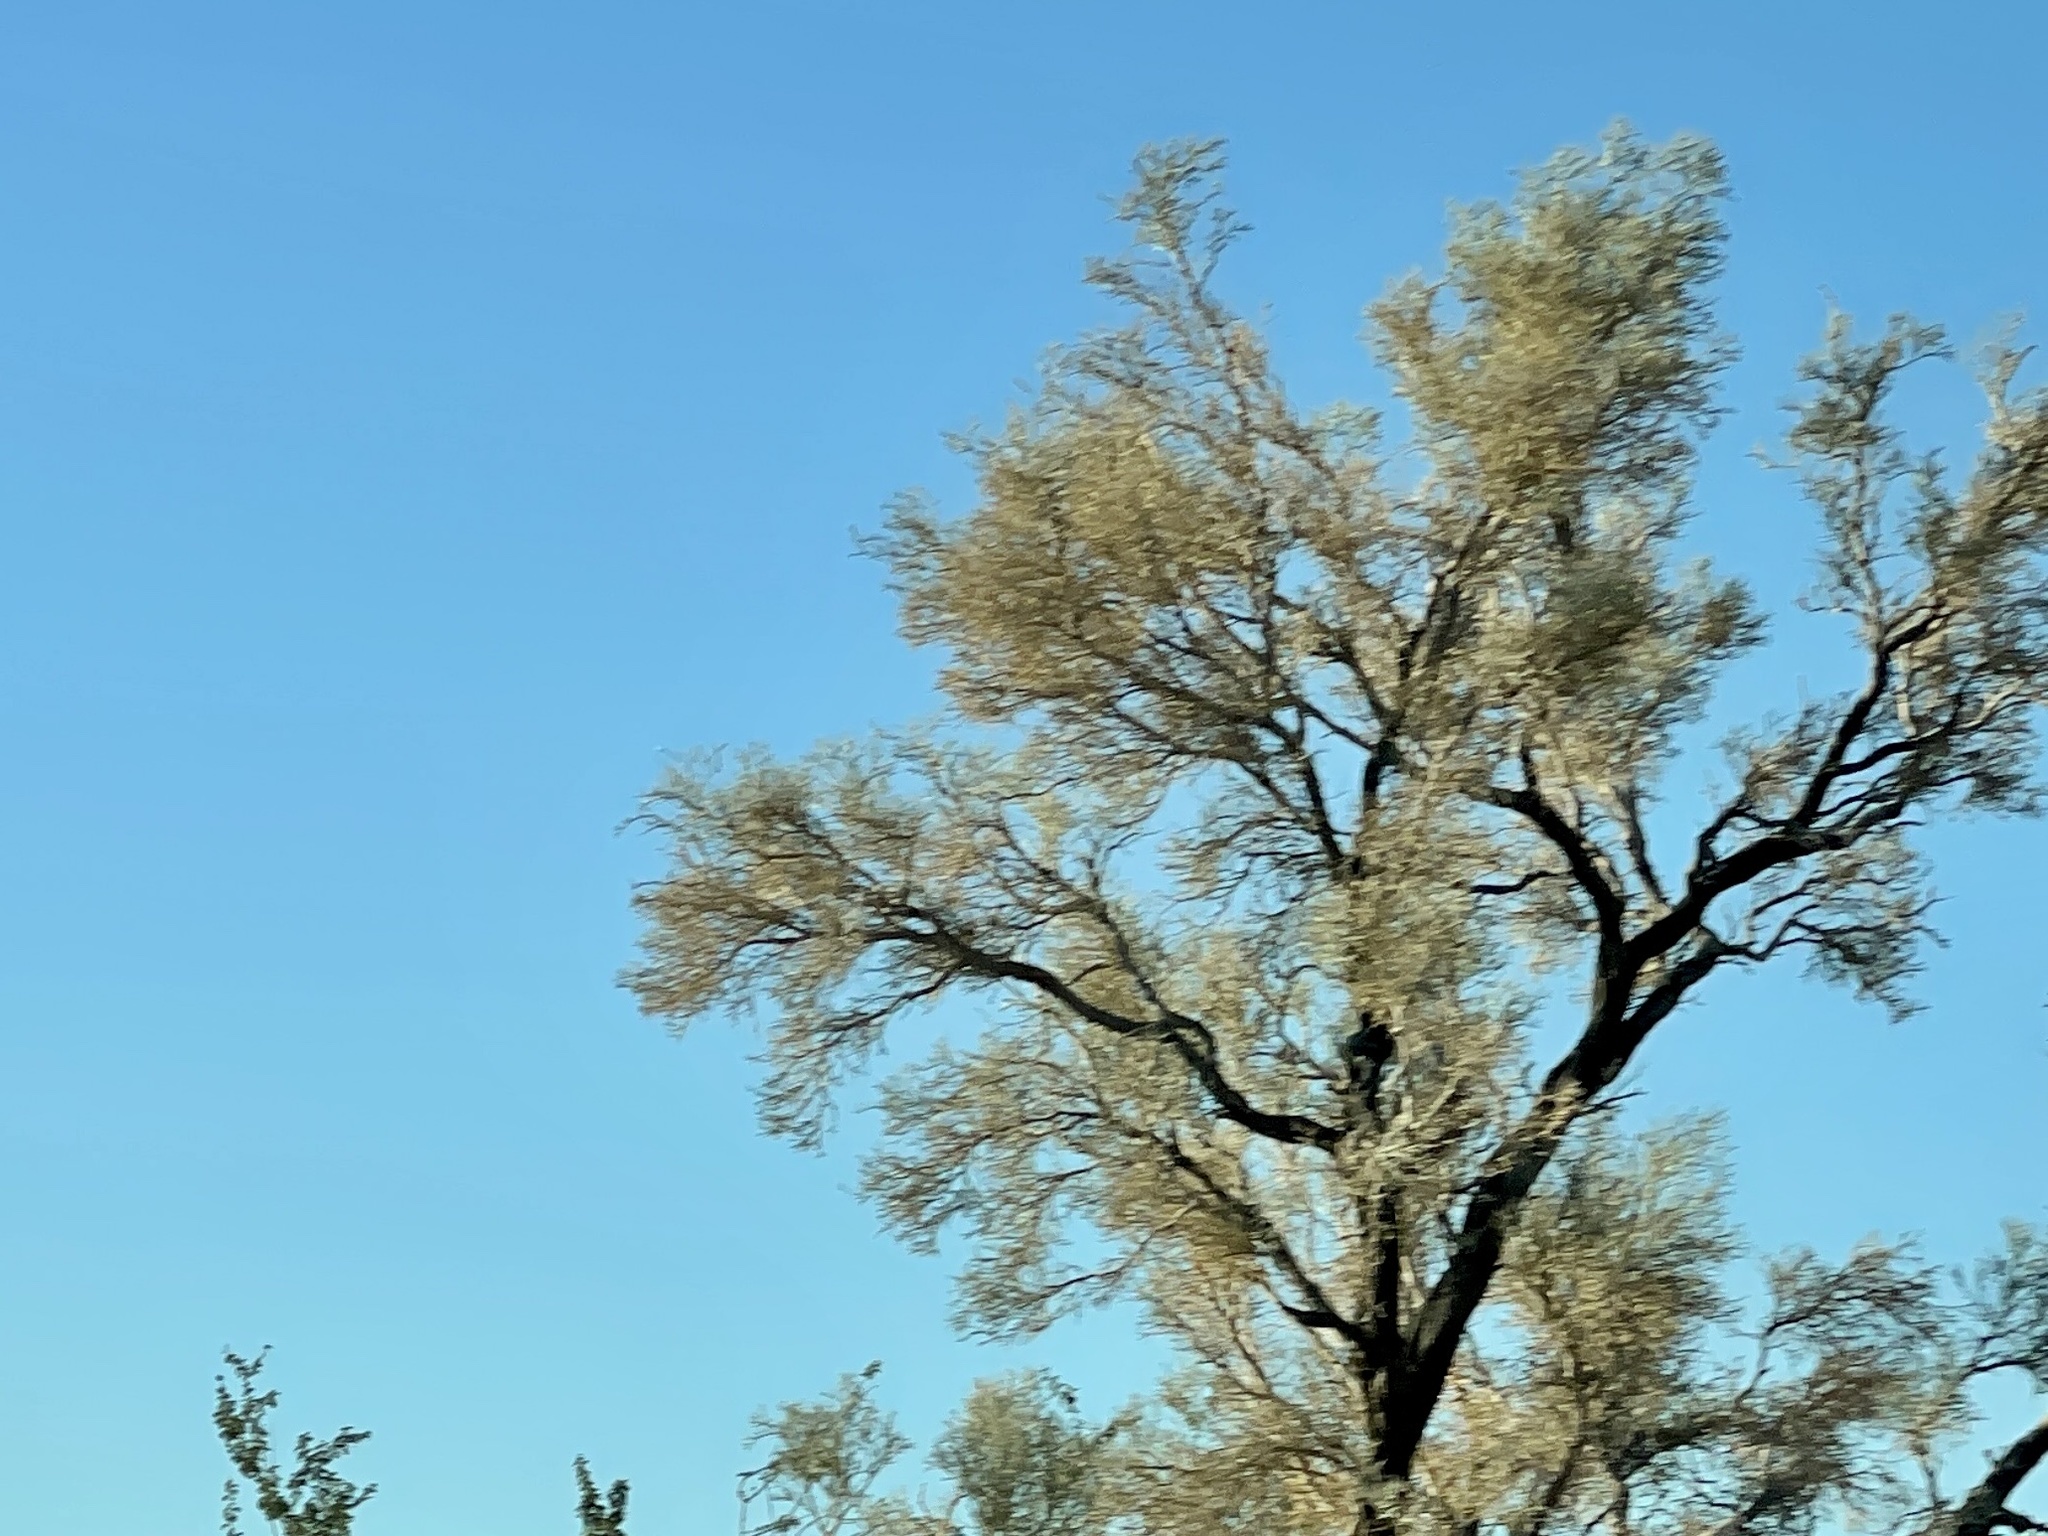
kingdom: Plantae
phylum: Tracheophyta
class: Magnoliopsida
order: Fabales
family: Fabaceae
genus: Psorothamnus
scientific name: Psorothamnus spinosus
